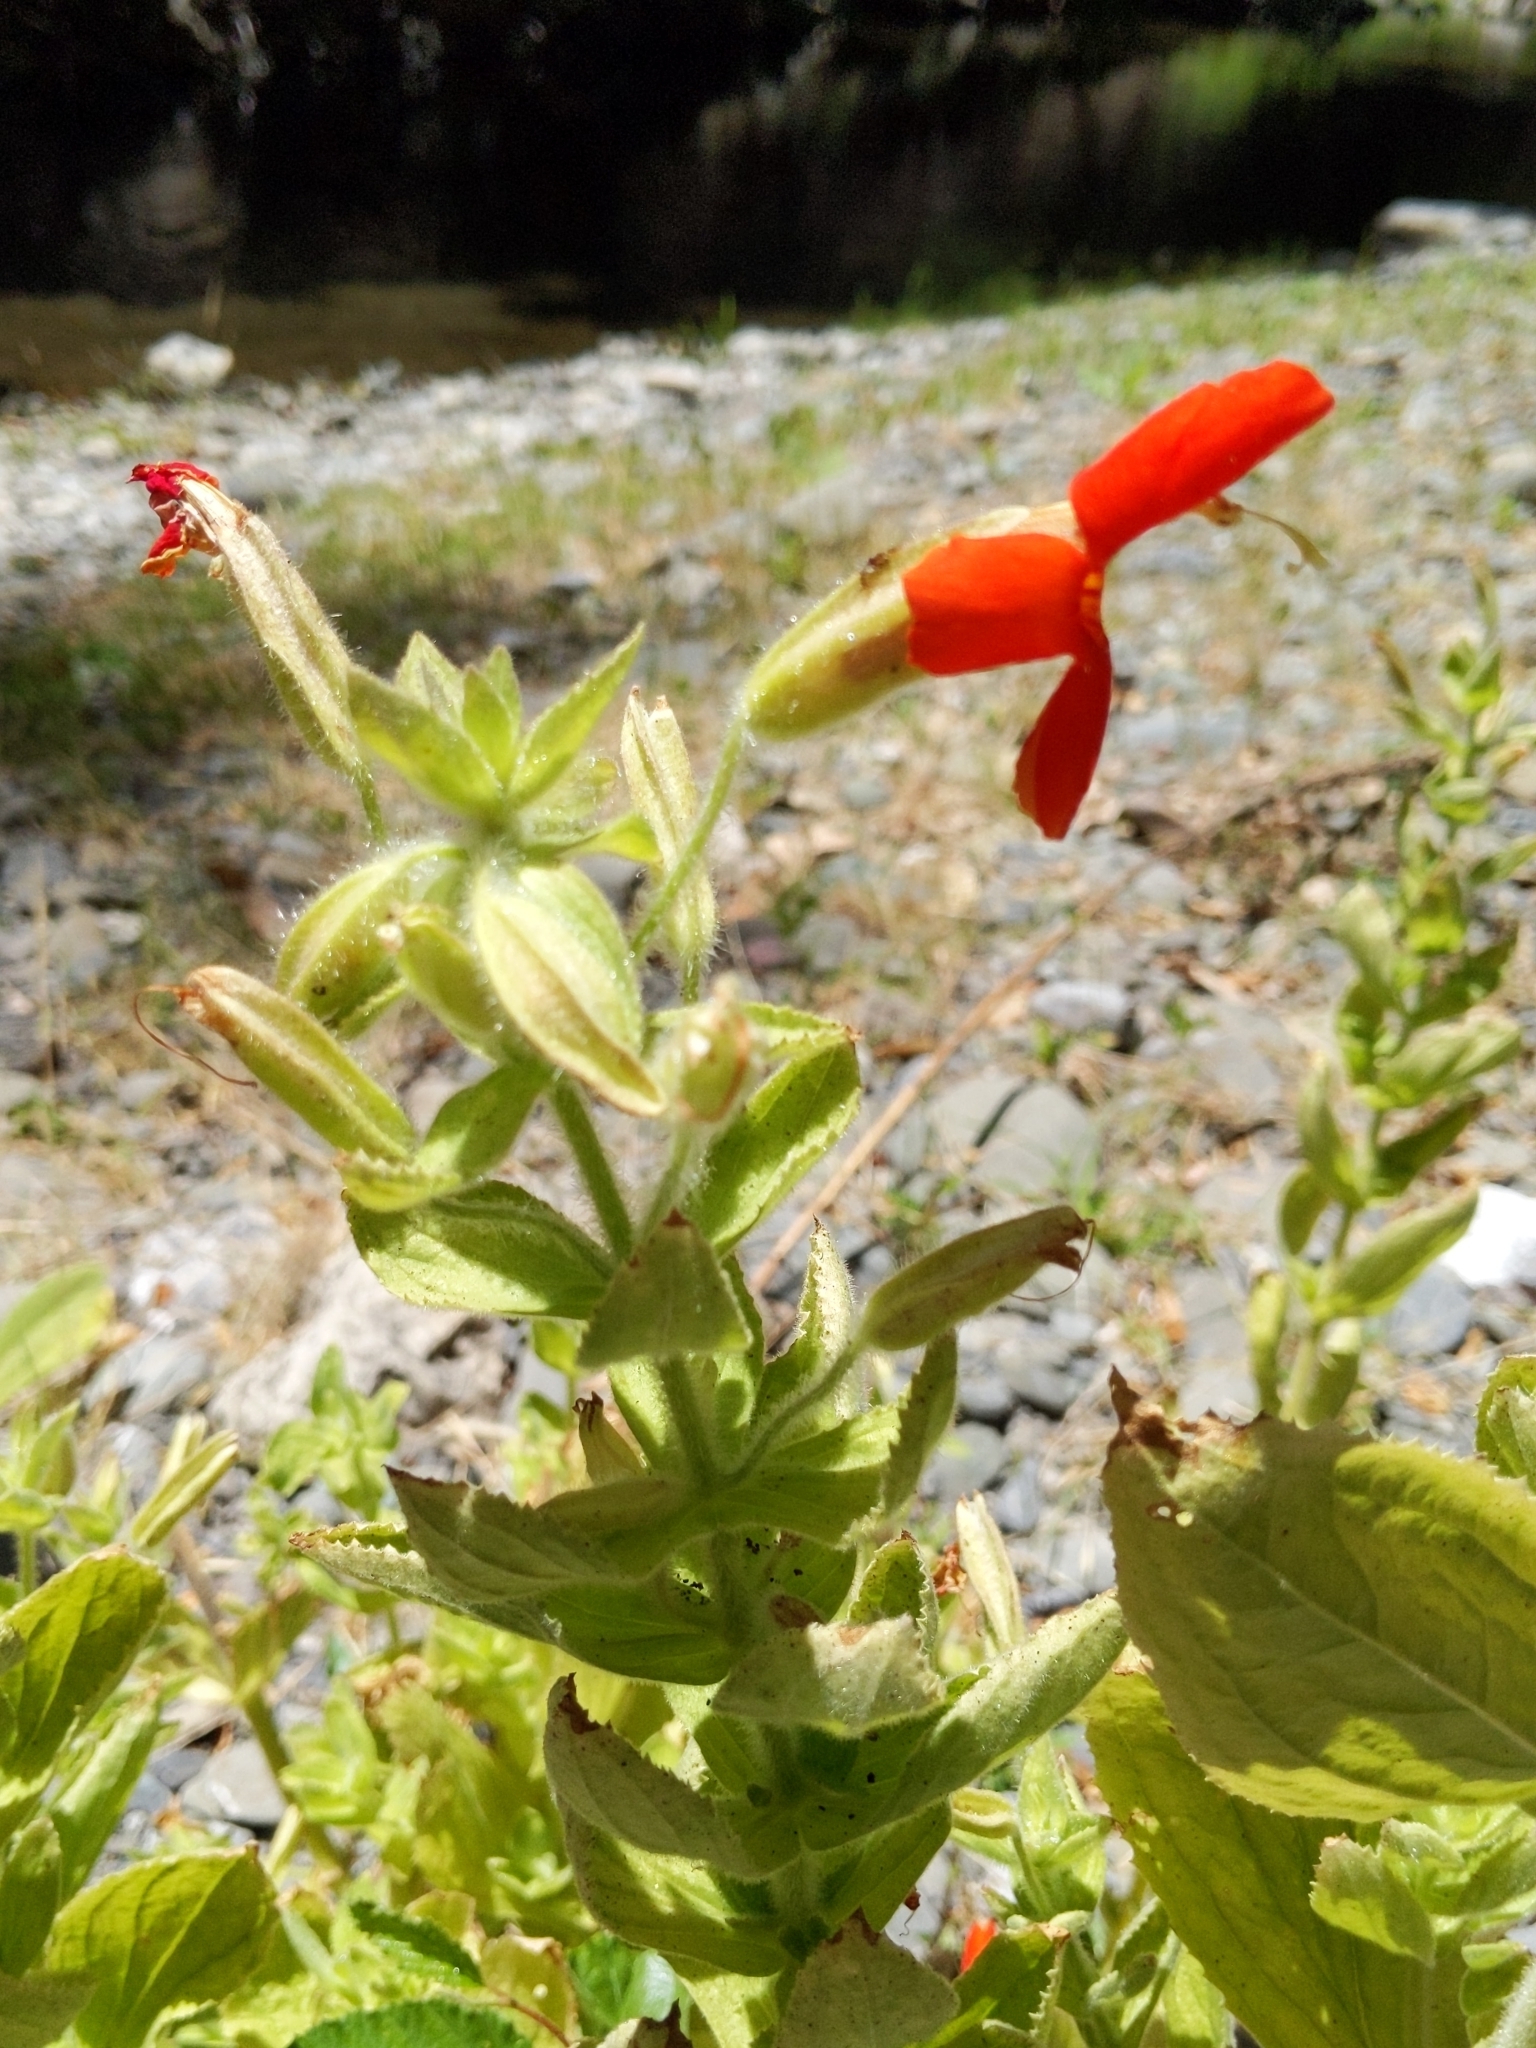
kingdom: Plantae
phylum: Tracheophyta
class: Magnoliopsida
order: Lamiales
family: Phrymaceae
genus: Erythranthe
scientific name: Erythranthe cardinalis
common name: Scarlet monkey-flower
